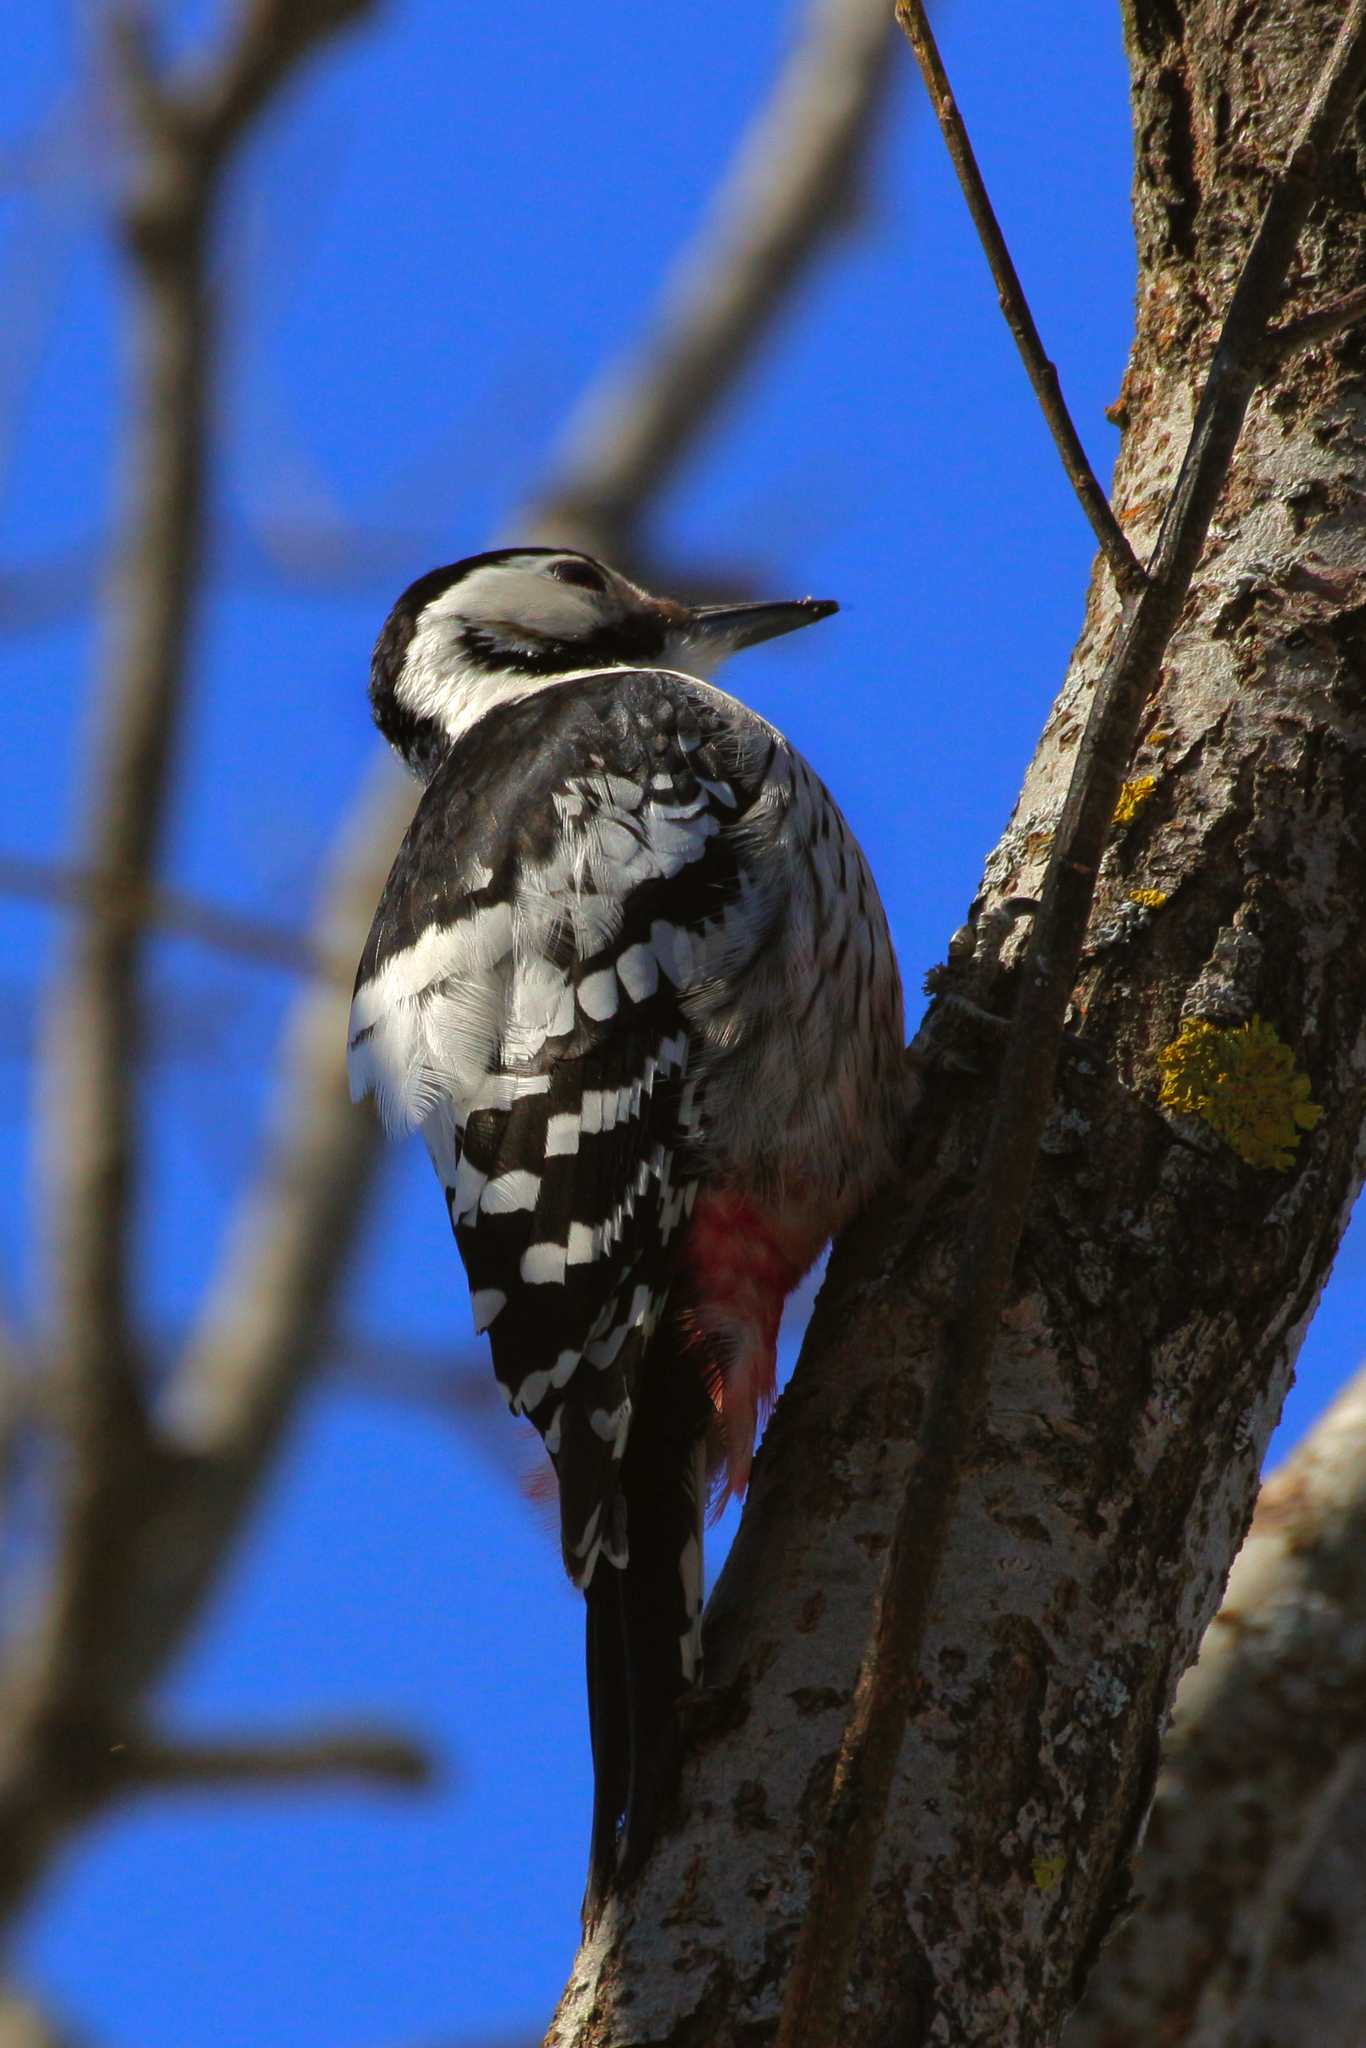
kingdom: Animalia
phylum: Chordata
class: Aves
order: Piciformes
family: Picidae
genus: Dendrocopos
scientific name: Dendrocopos leucotos
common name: White-backed woodpecker
